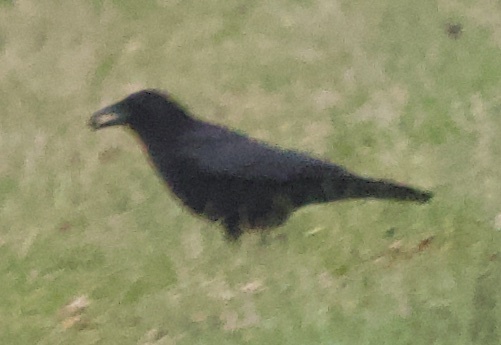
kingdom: Animalia
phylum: Chordata
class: Aves
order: Passeriformes
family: Corvidae
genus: Corvus
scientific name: Corvus corone
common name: Carrion crow
